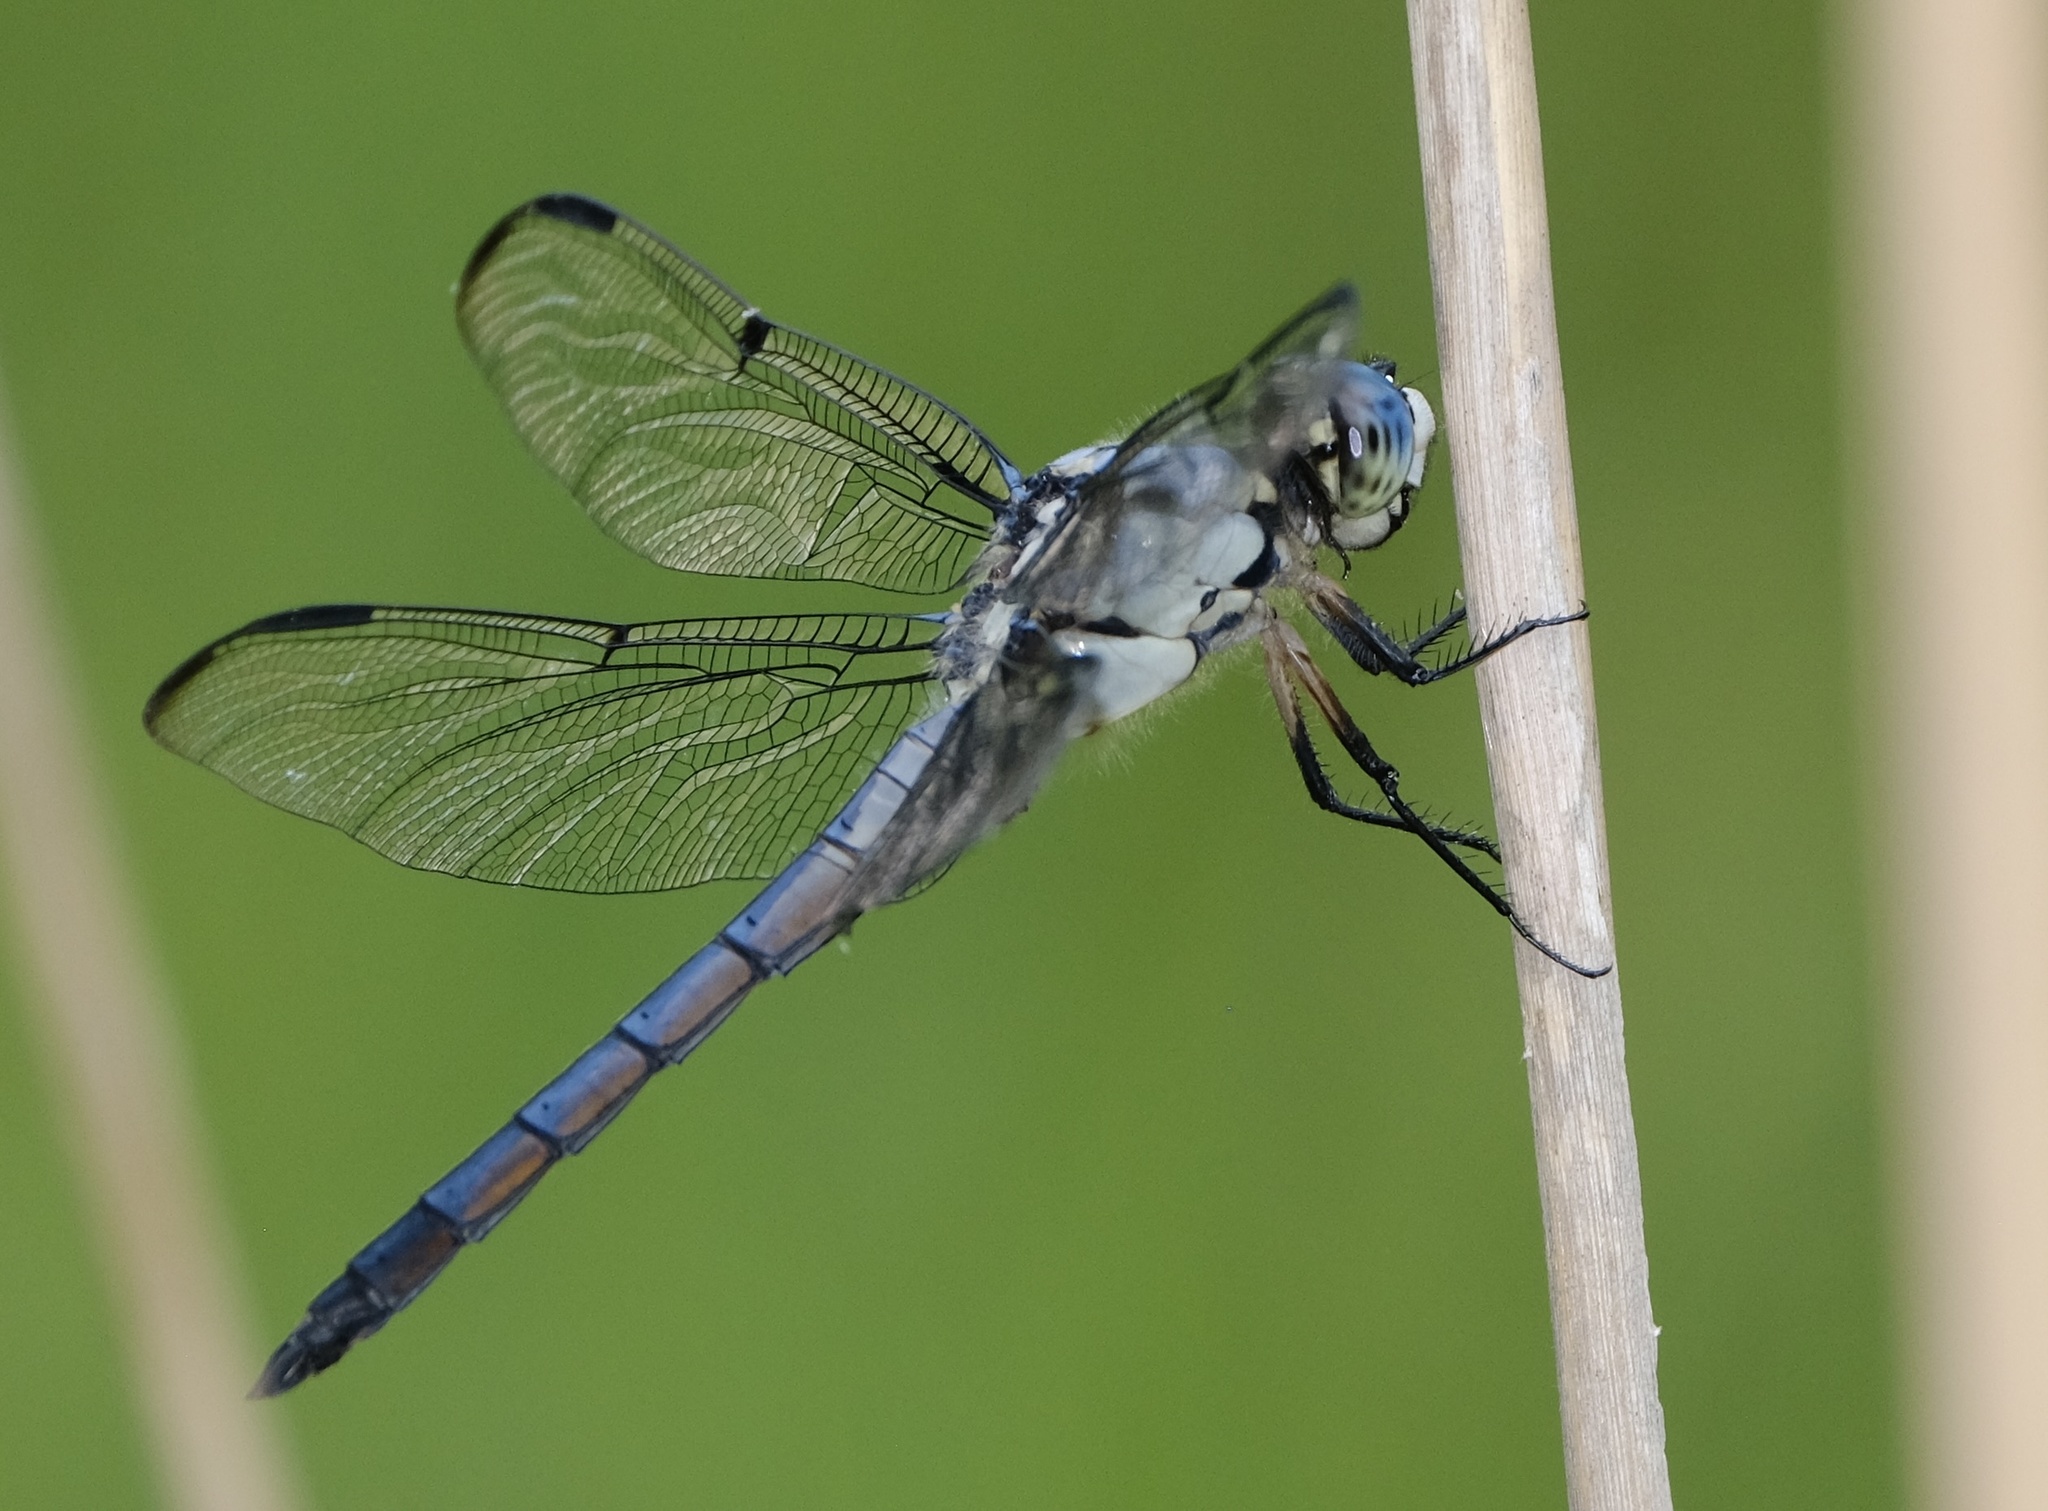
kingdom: Animalia
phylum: Arthropoda
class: Insecta
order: Odonata
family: Libellulidae
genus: Libellula
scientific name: Libellula vibrans
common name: Great blue skimmer
